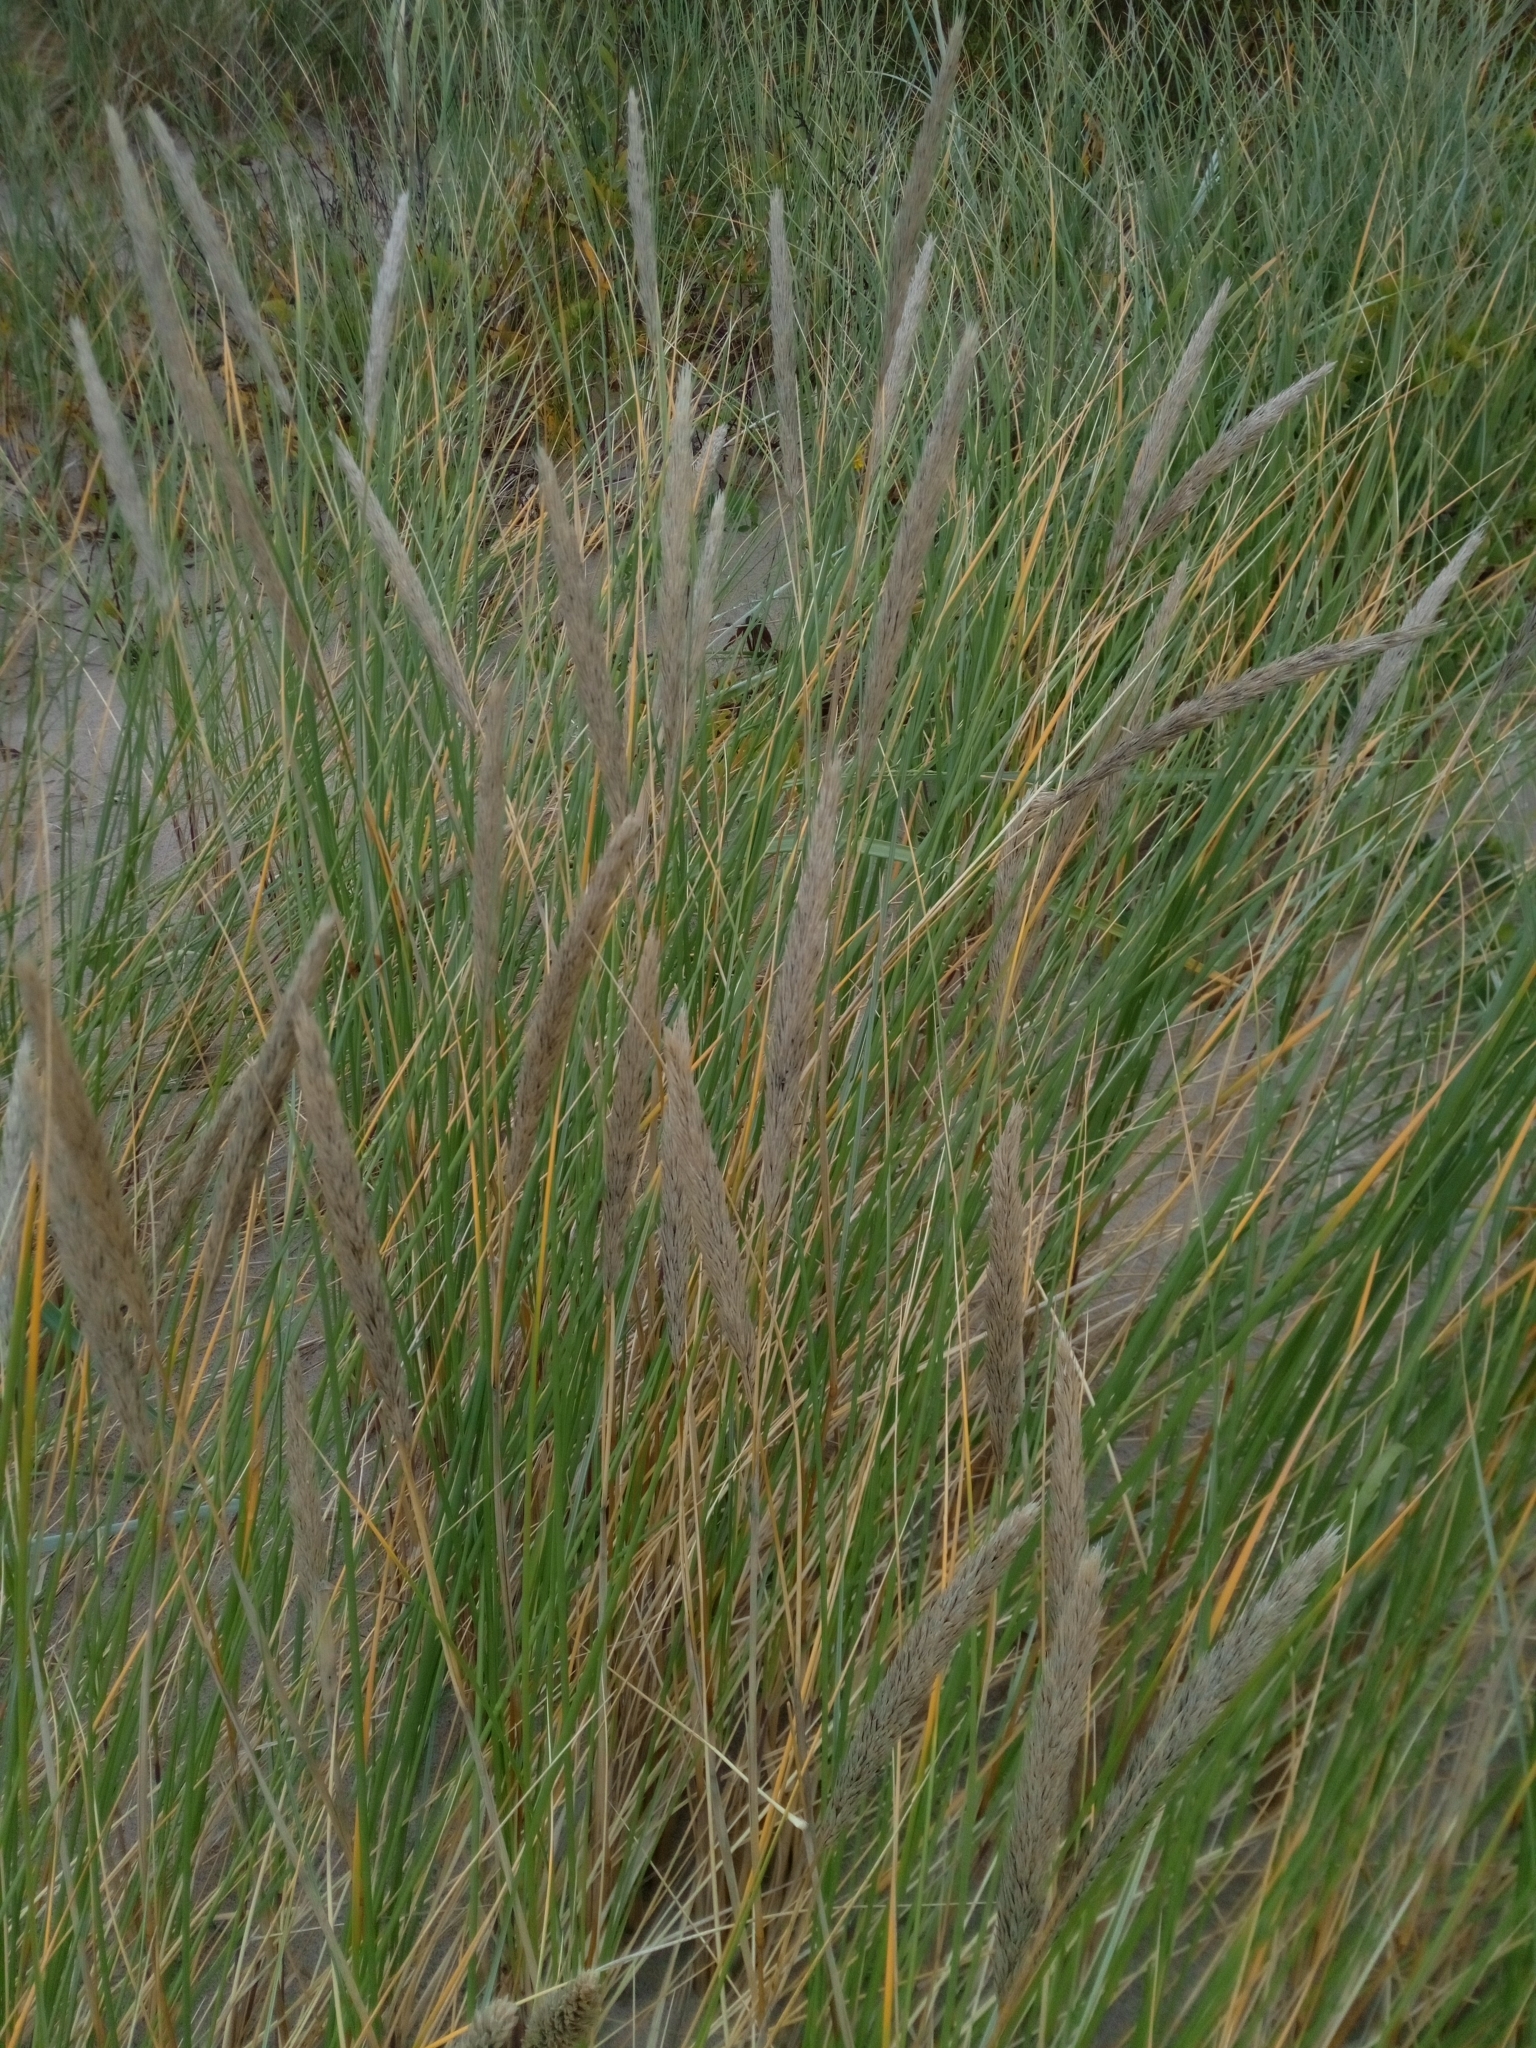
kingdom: Plantae
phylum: Tracheophyta
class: Liliopsida
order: Poales
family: Poaceae
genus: Calamagrostis
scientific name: Calamagrostis arenaria
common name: European beachgrass
